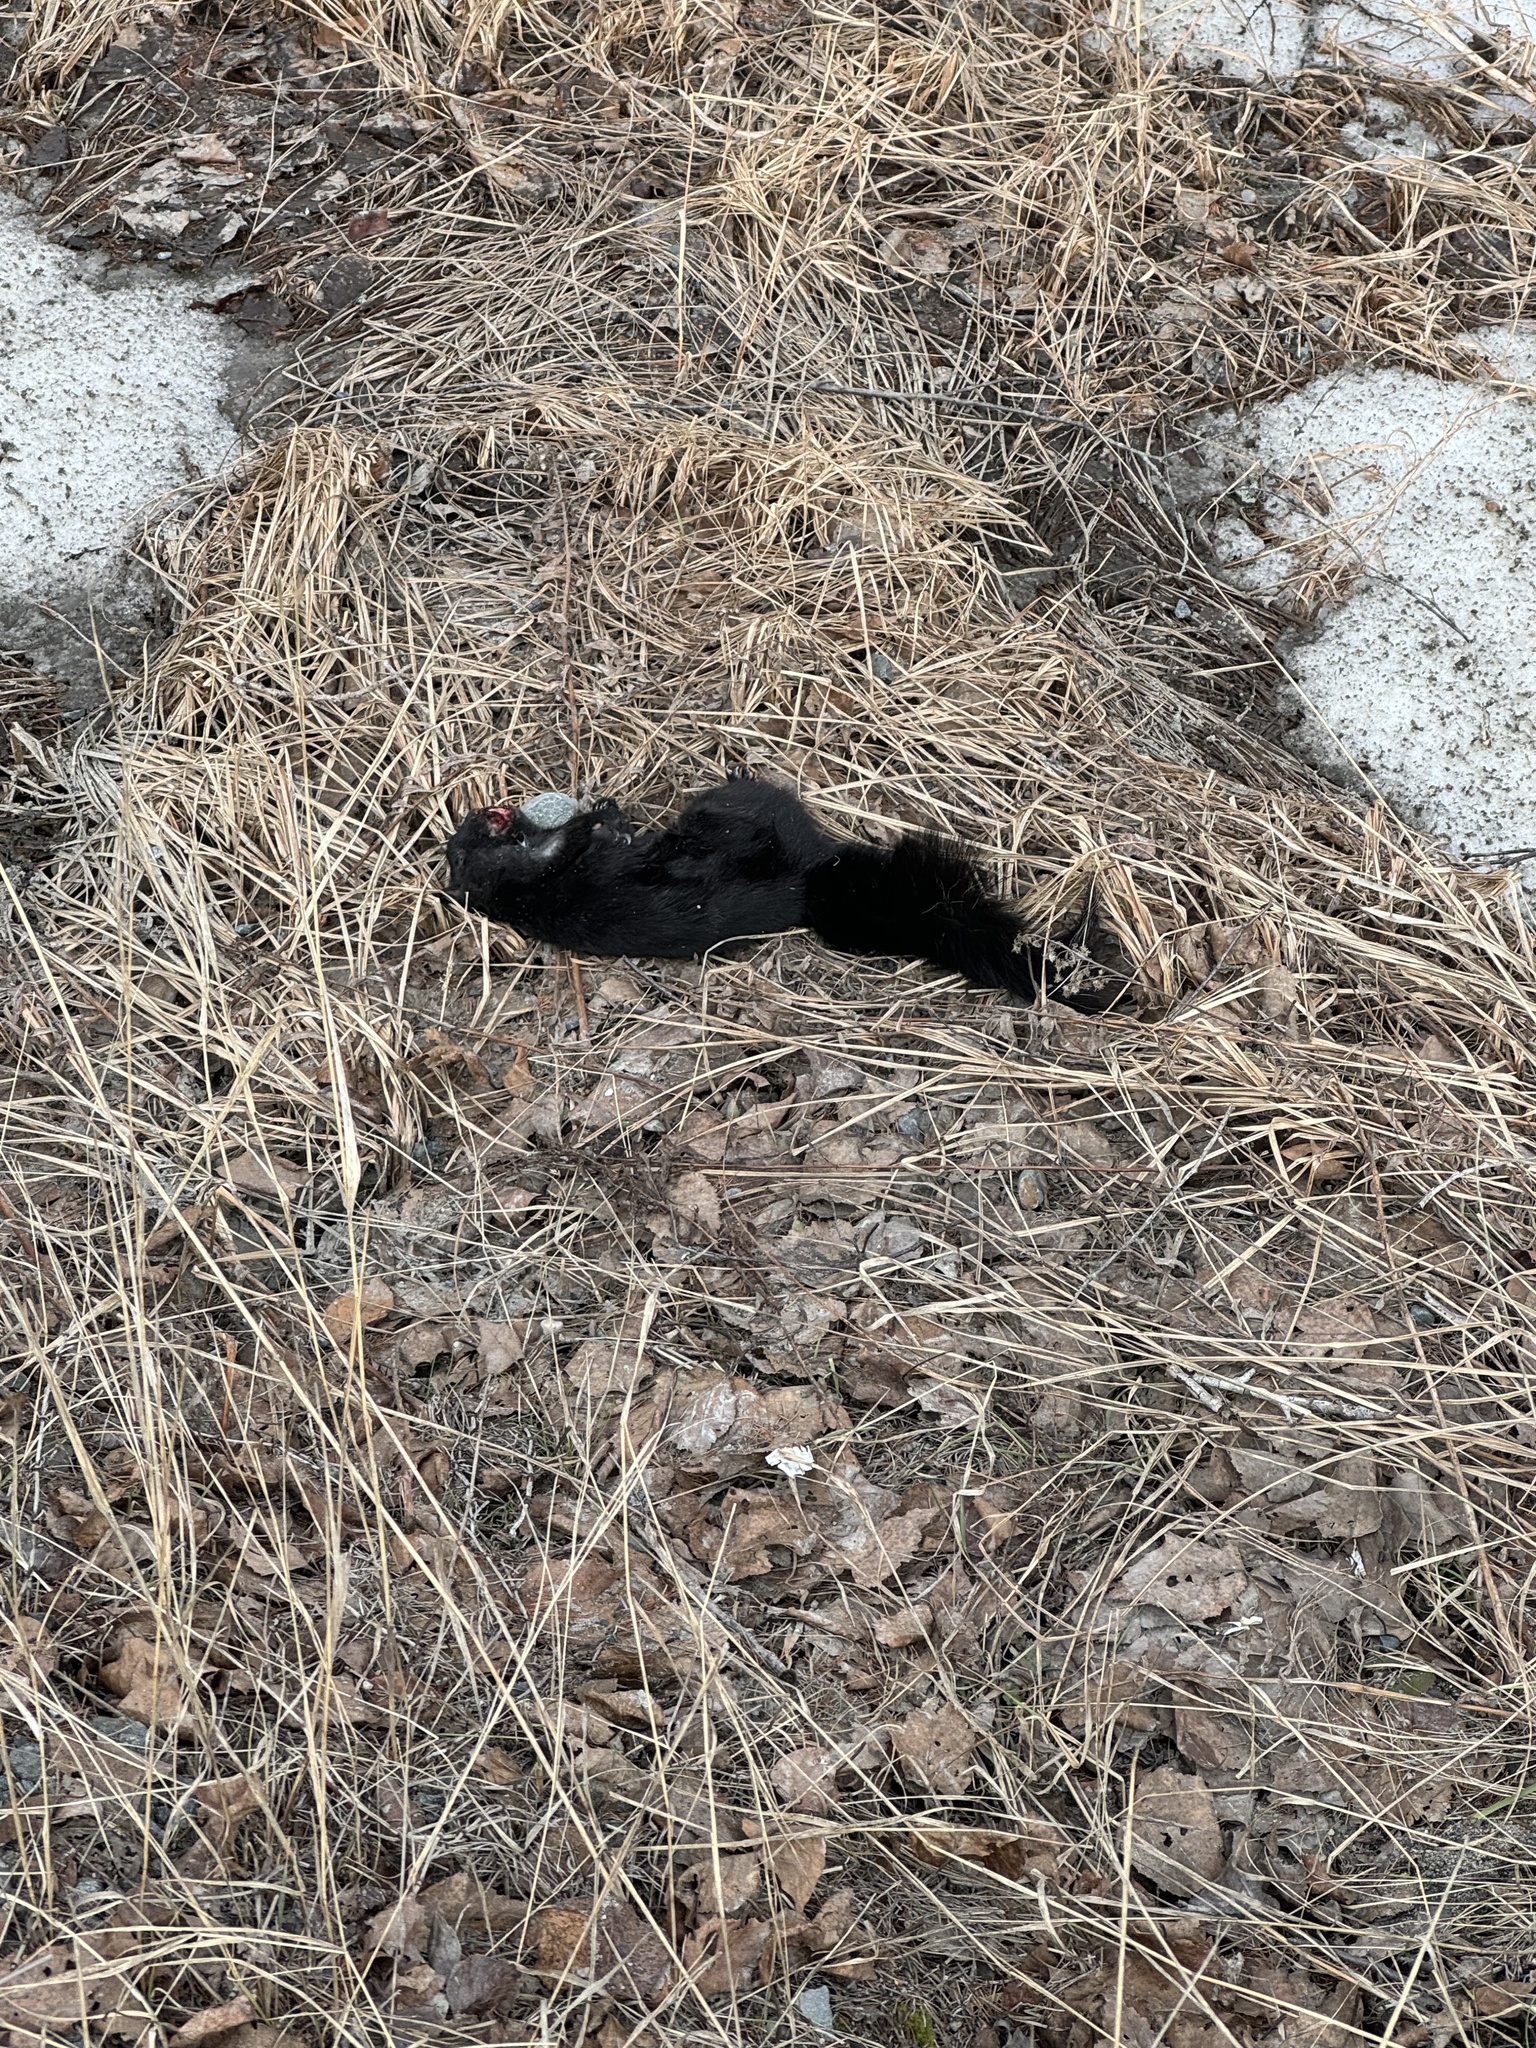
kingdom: Animalia
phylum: Chordata
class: Mammalia
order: Rodentia
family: Sciuridae
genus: Sciurus
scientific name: Sciurus carolinensis
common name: Eastern gray squirrel
